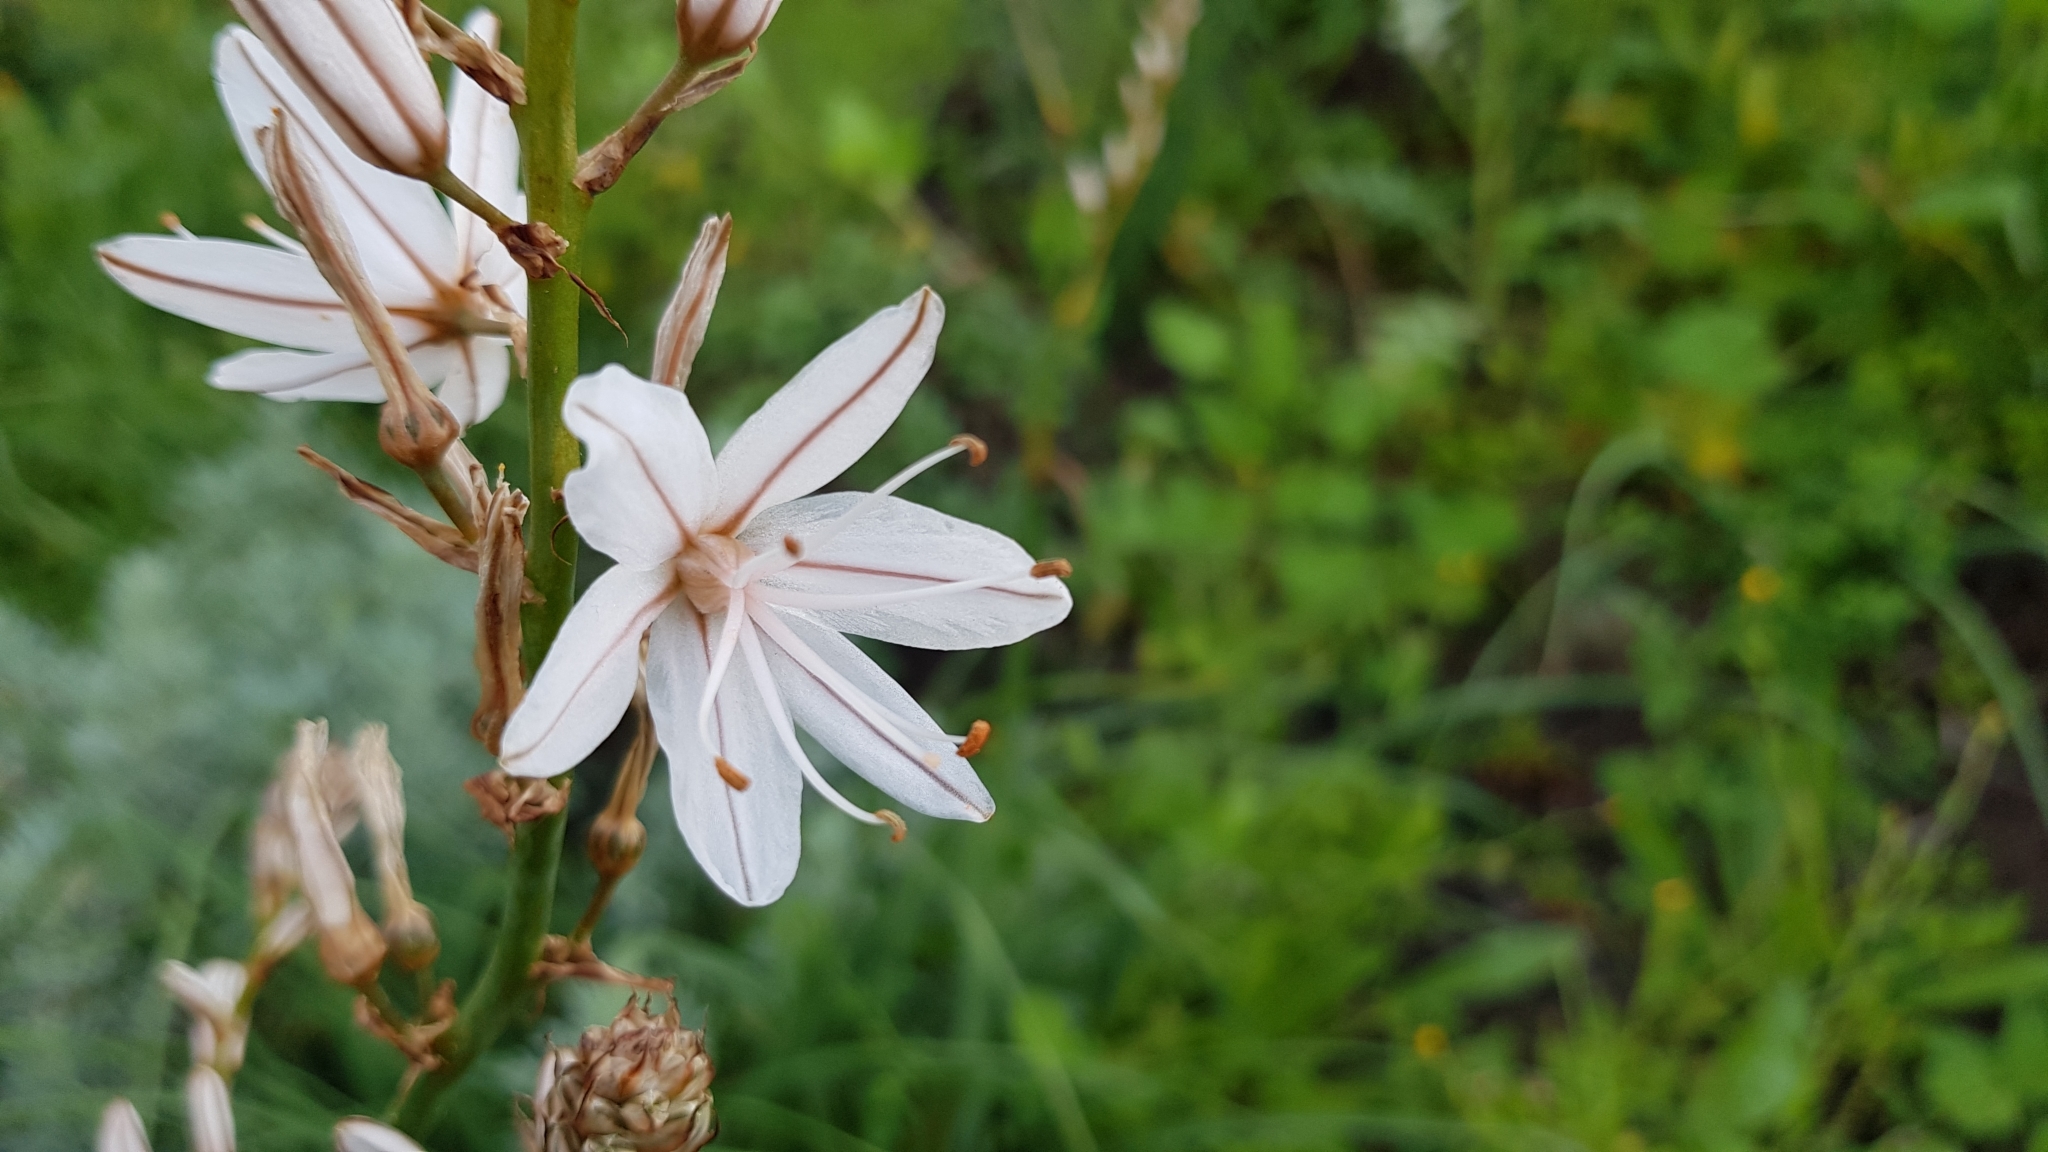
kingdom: Plantae
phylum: Tracheophyta
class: Liliopsida
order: Asparagales
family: Asphodelaceae
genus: Asphodelus
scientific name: Asphodelus ramosus
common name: Silverrod
